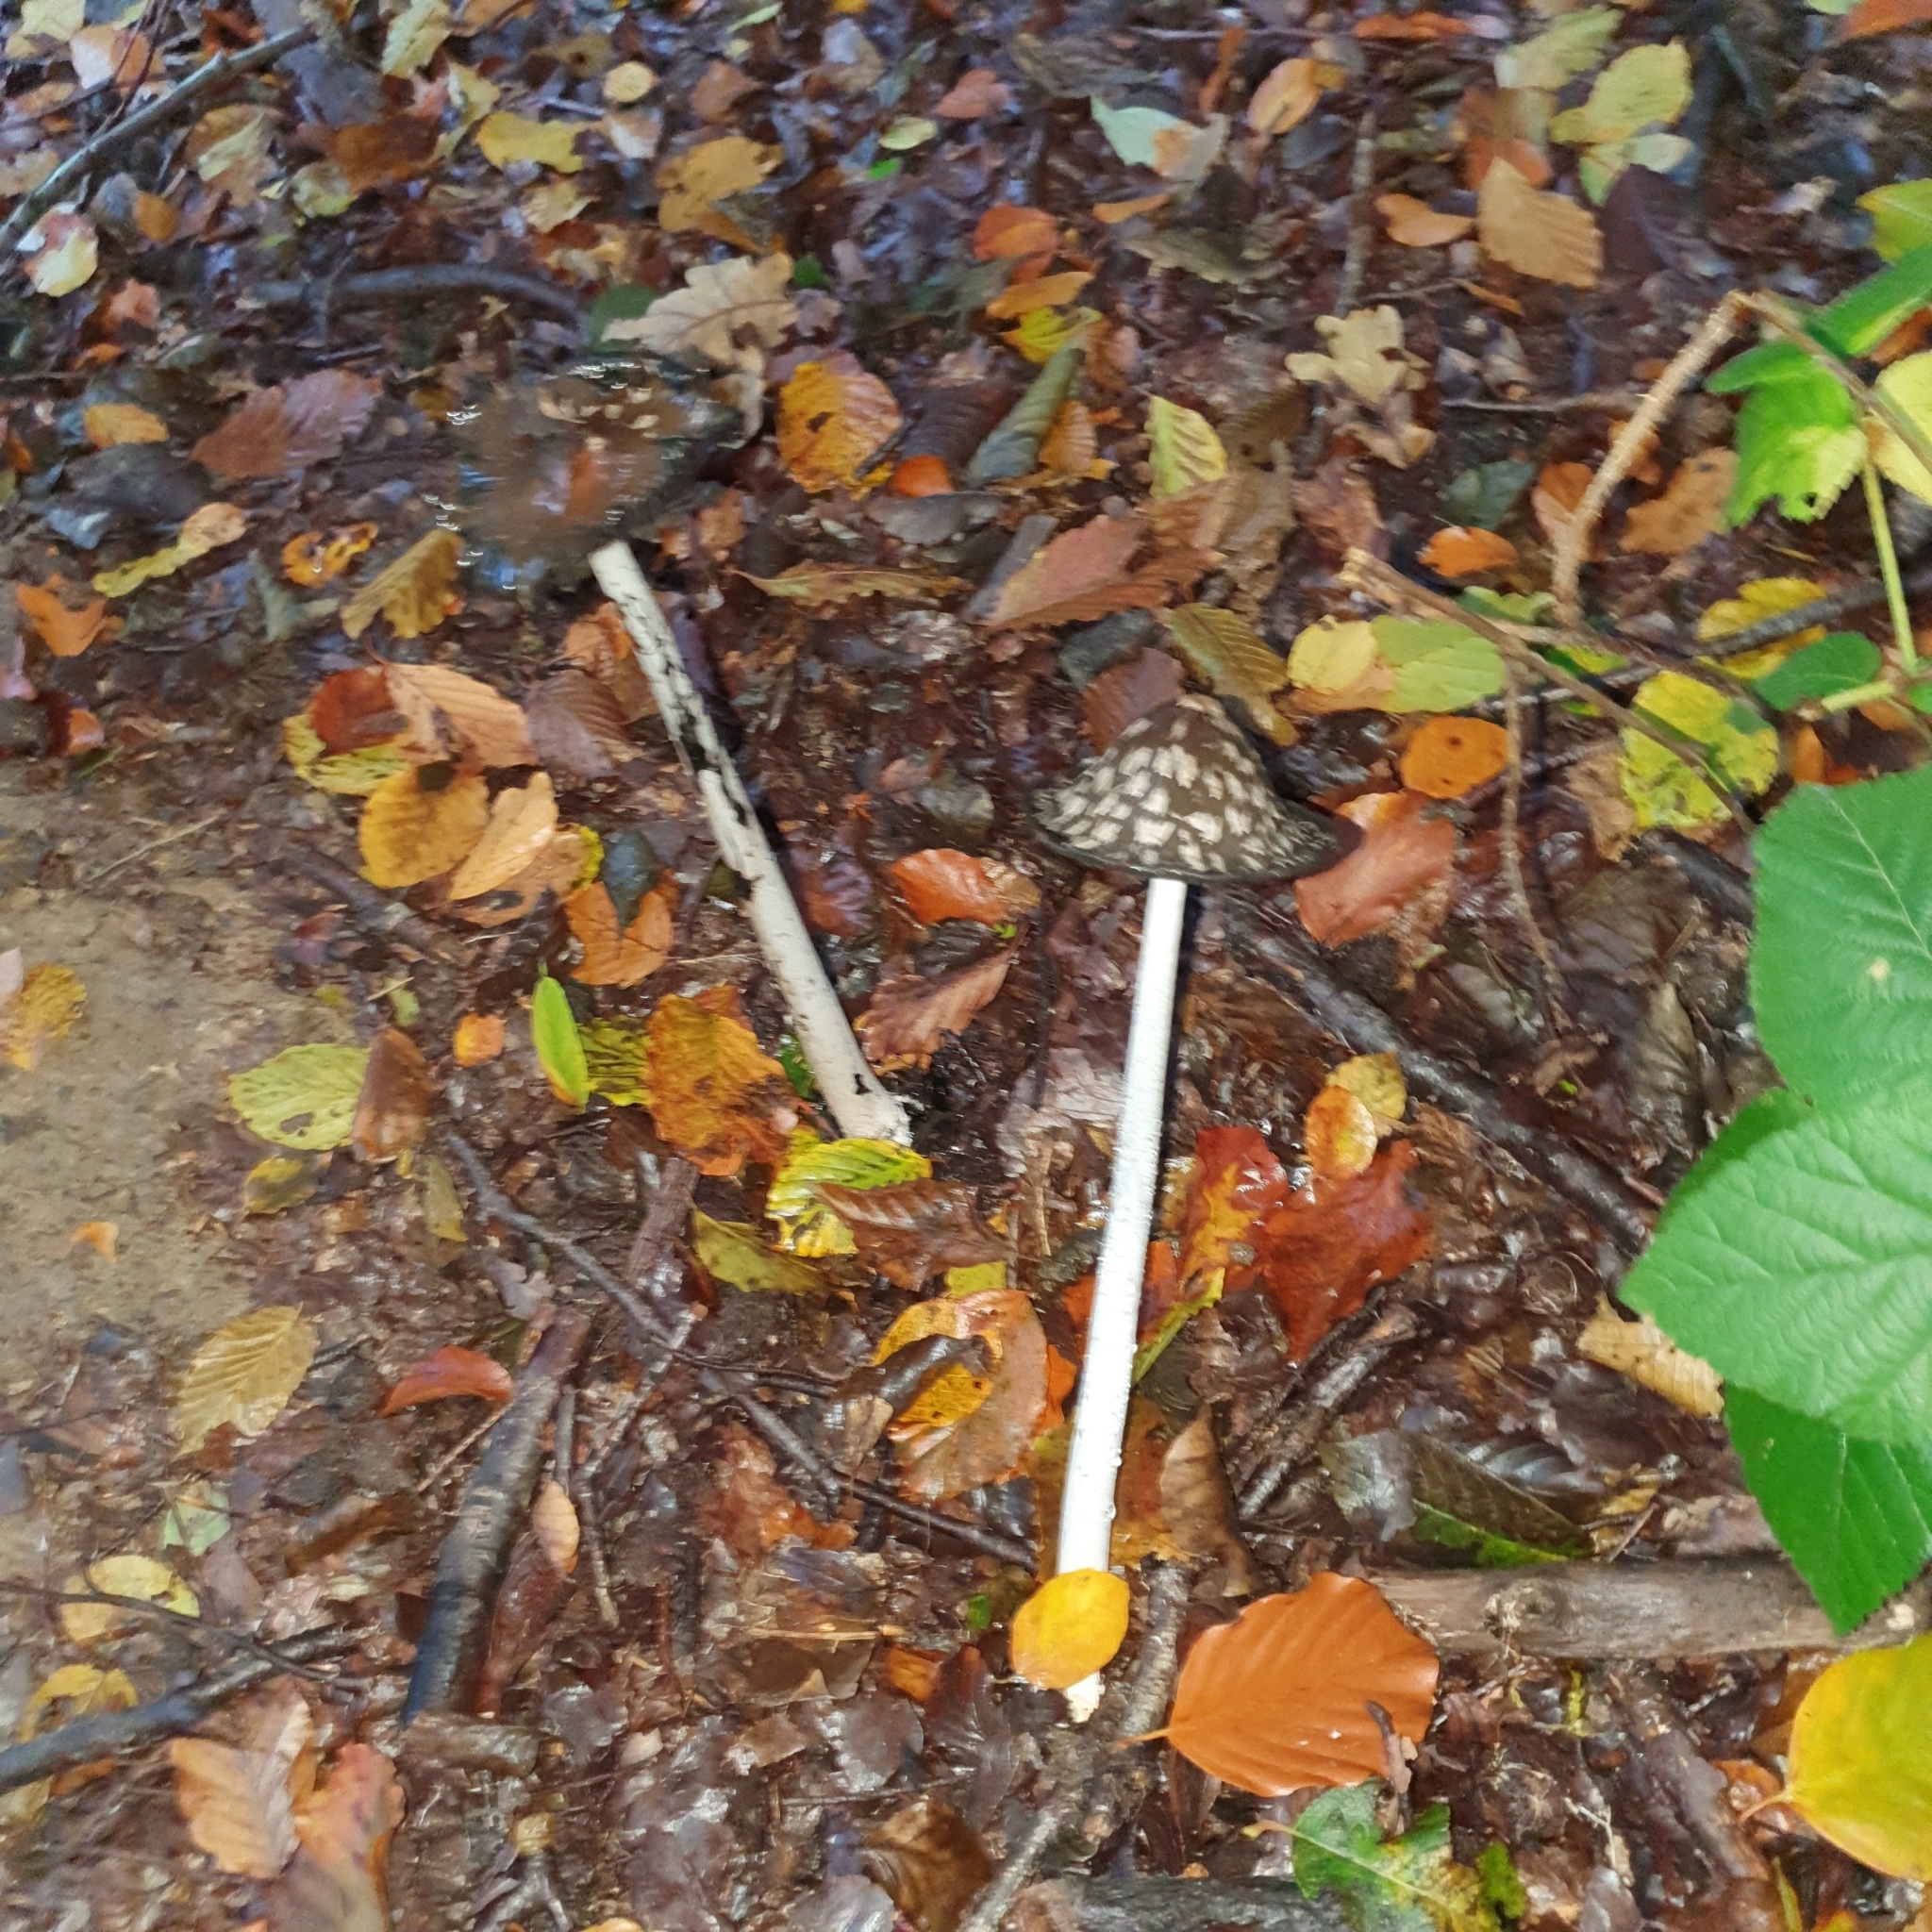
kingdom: Fungi
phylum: Basidiomycota
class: Agaricomycetes
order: Agaricales
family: Psathyrellaceae
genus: Coprinopsis
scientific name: Coprinopsis picacea
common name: Magpie inkcap
